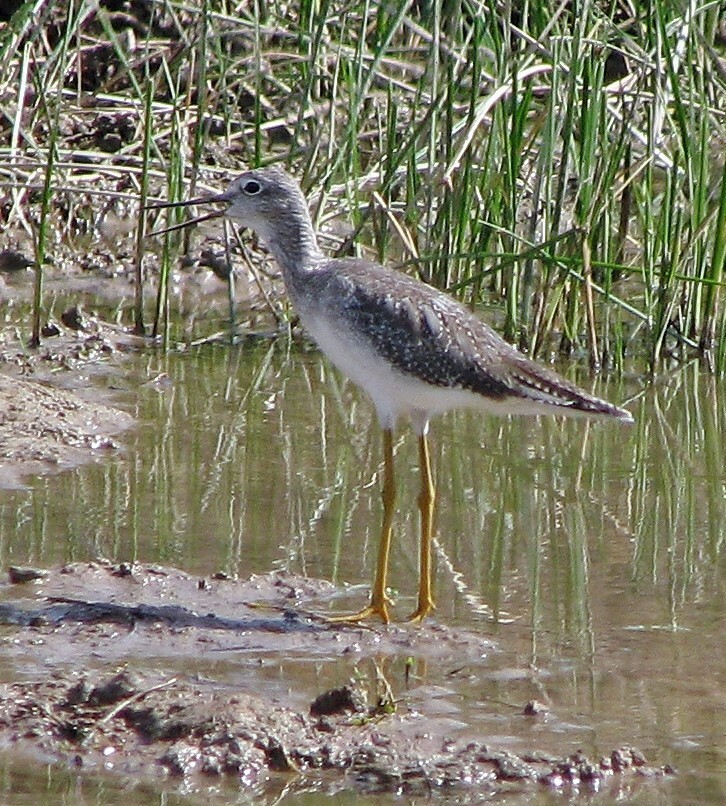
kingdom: Animalia
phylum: Chordata
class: Aves
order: Charadriiformes
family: Scolopacidae
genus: Tringa
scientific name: Tringa flavipes
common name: Lesser yellowlegs
